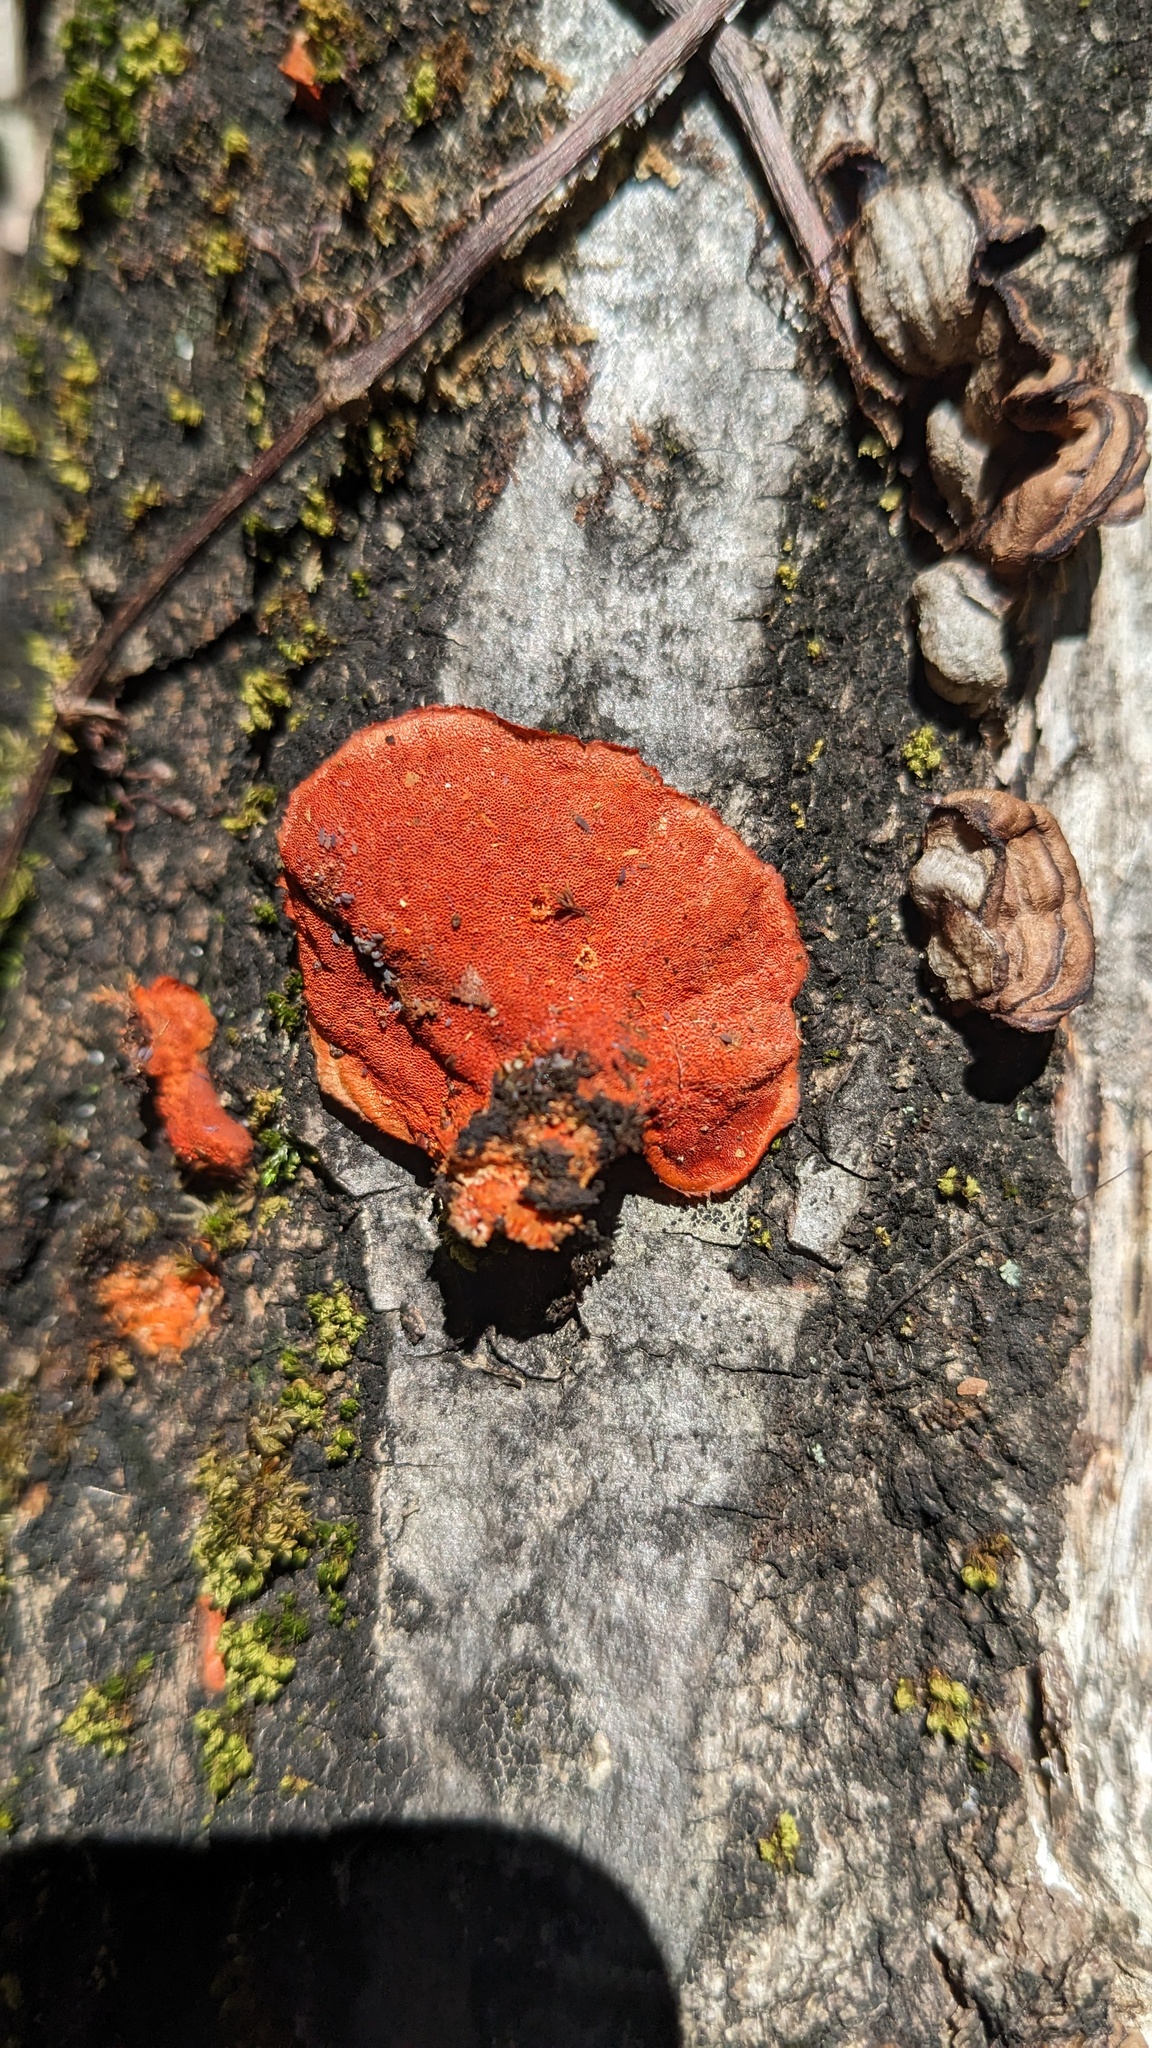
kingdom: Fungi
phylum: Basidiomycota
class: Agaricomycetes
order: Polyporales
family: Polyporaceae
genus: Trametes
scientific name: Trametes coccinea
